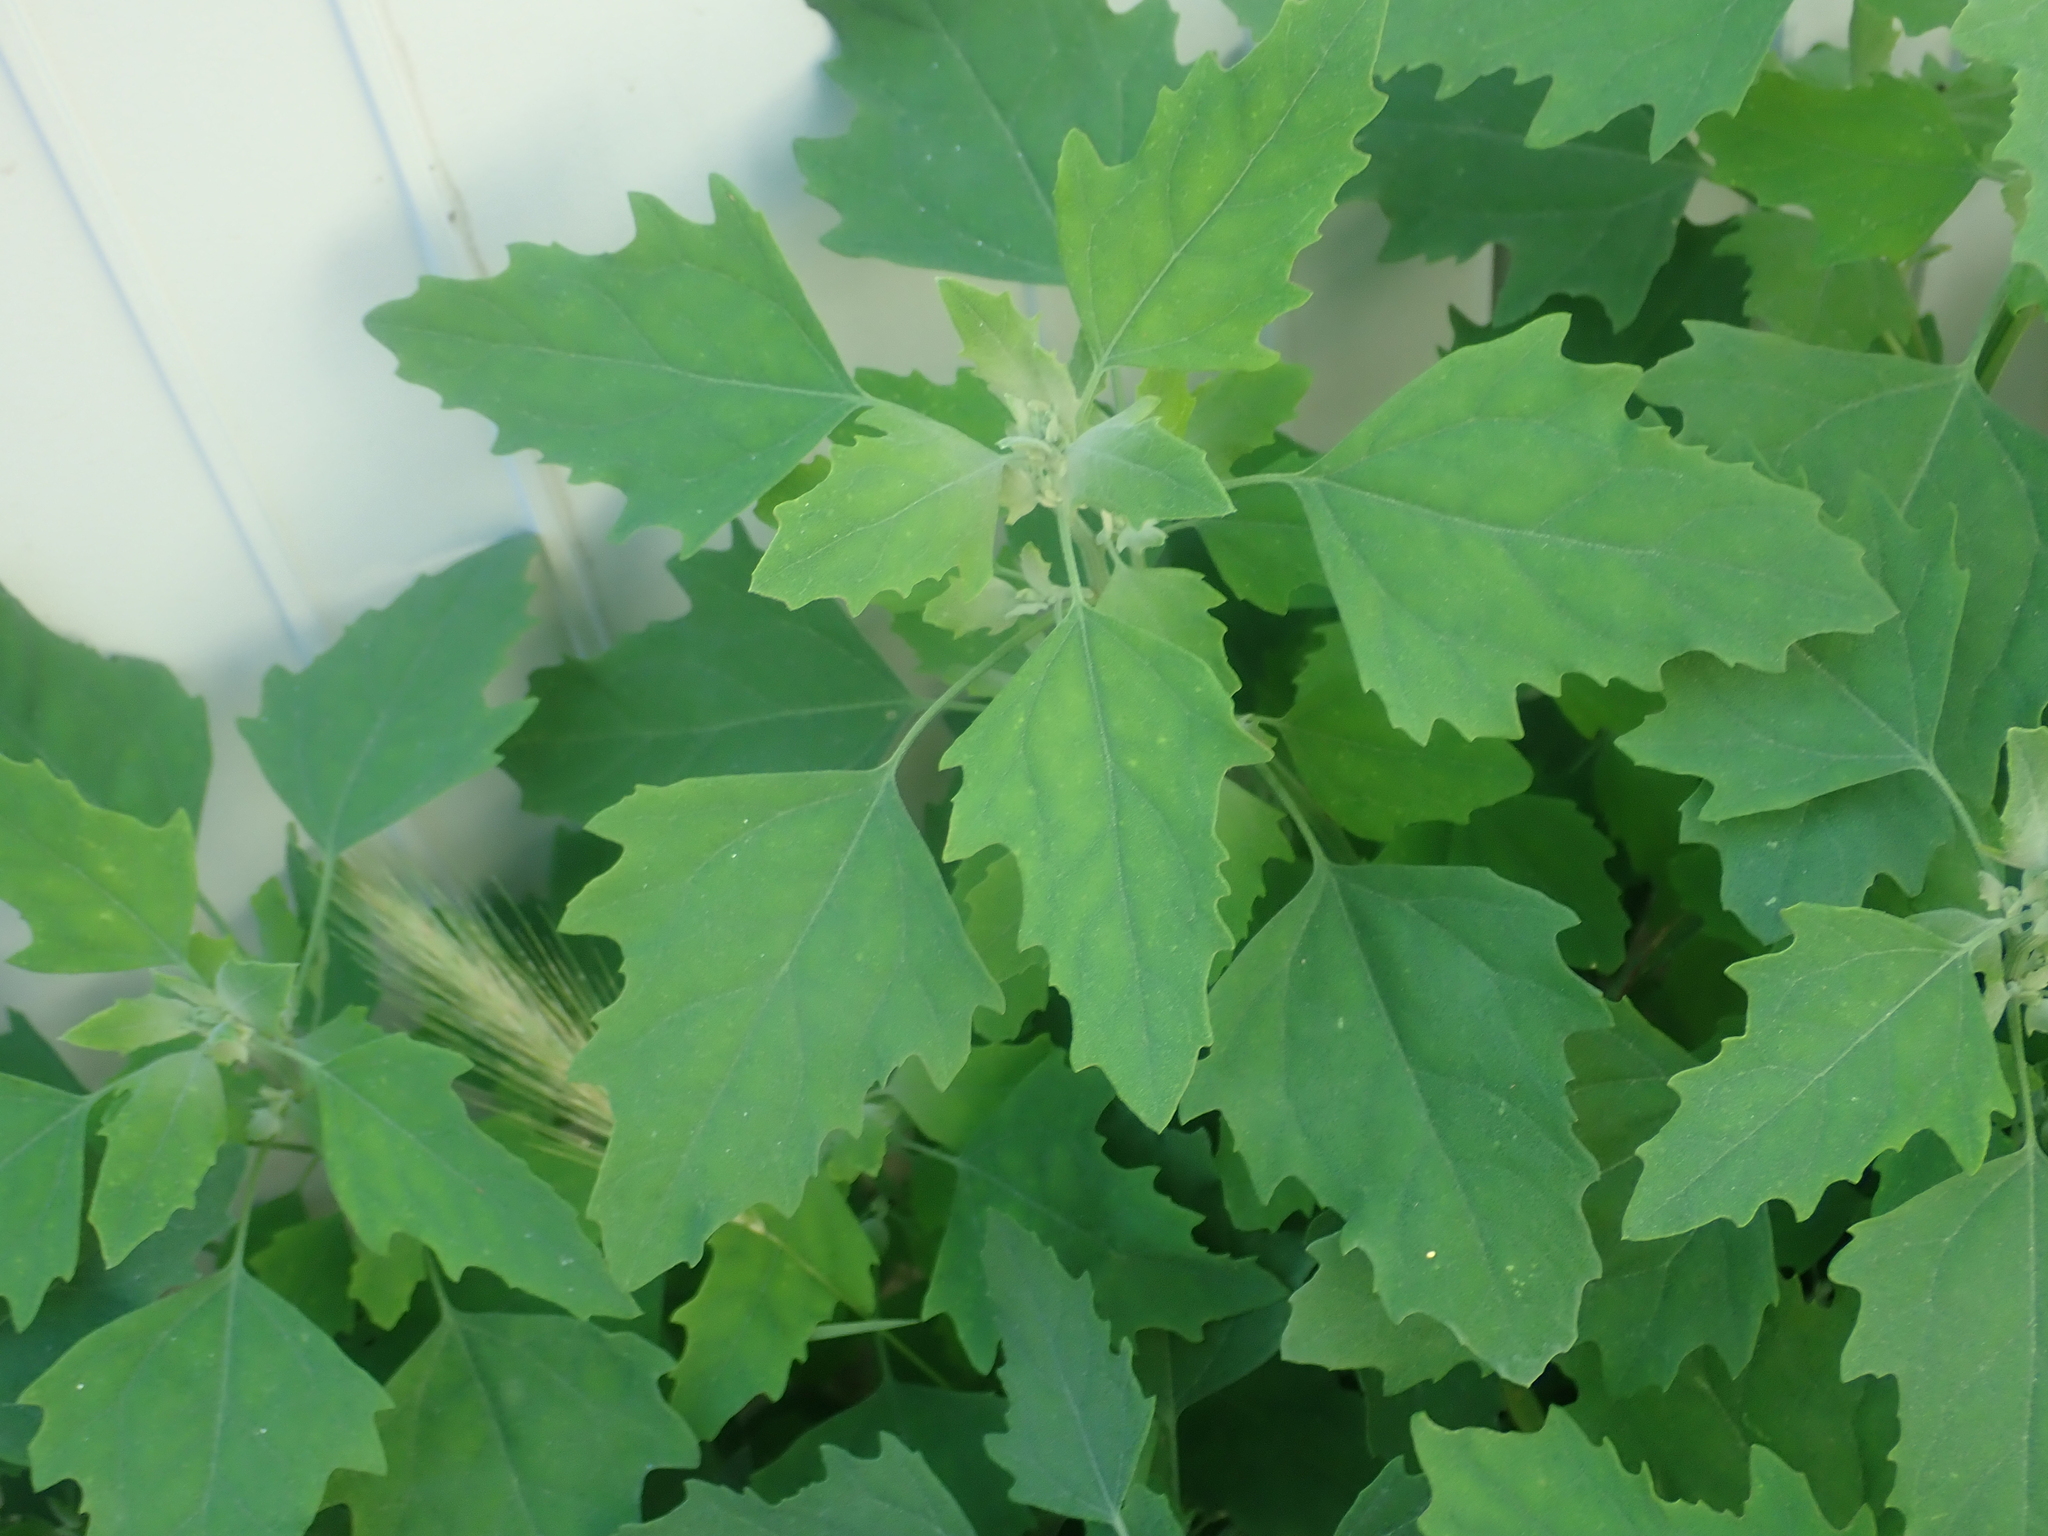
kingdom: Plantae
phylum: Tracheophyta
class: Magnoliopsida
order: Caryophyllales
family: Amaranthaceae
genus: Chenopodium
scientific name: Chenopodium album
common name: Fat-hen
